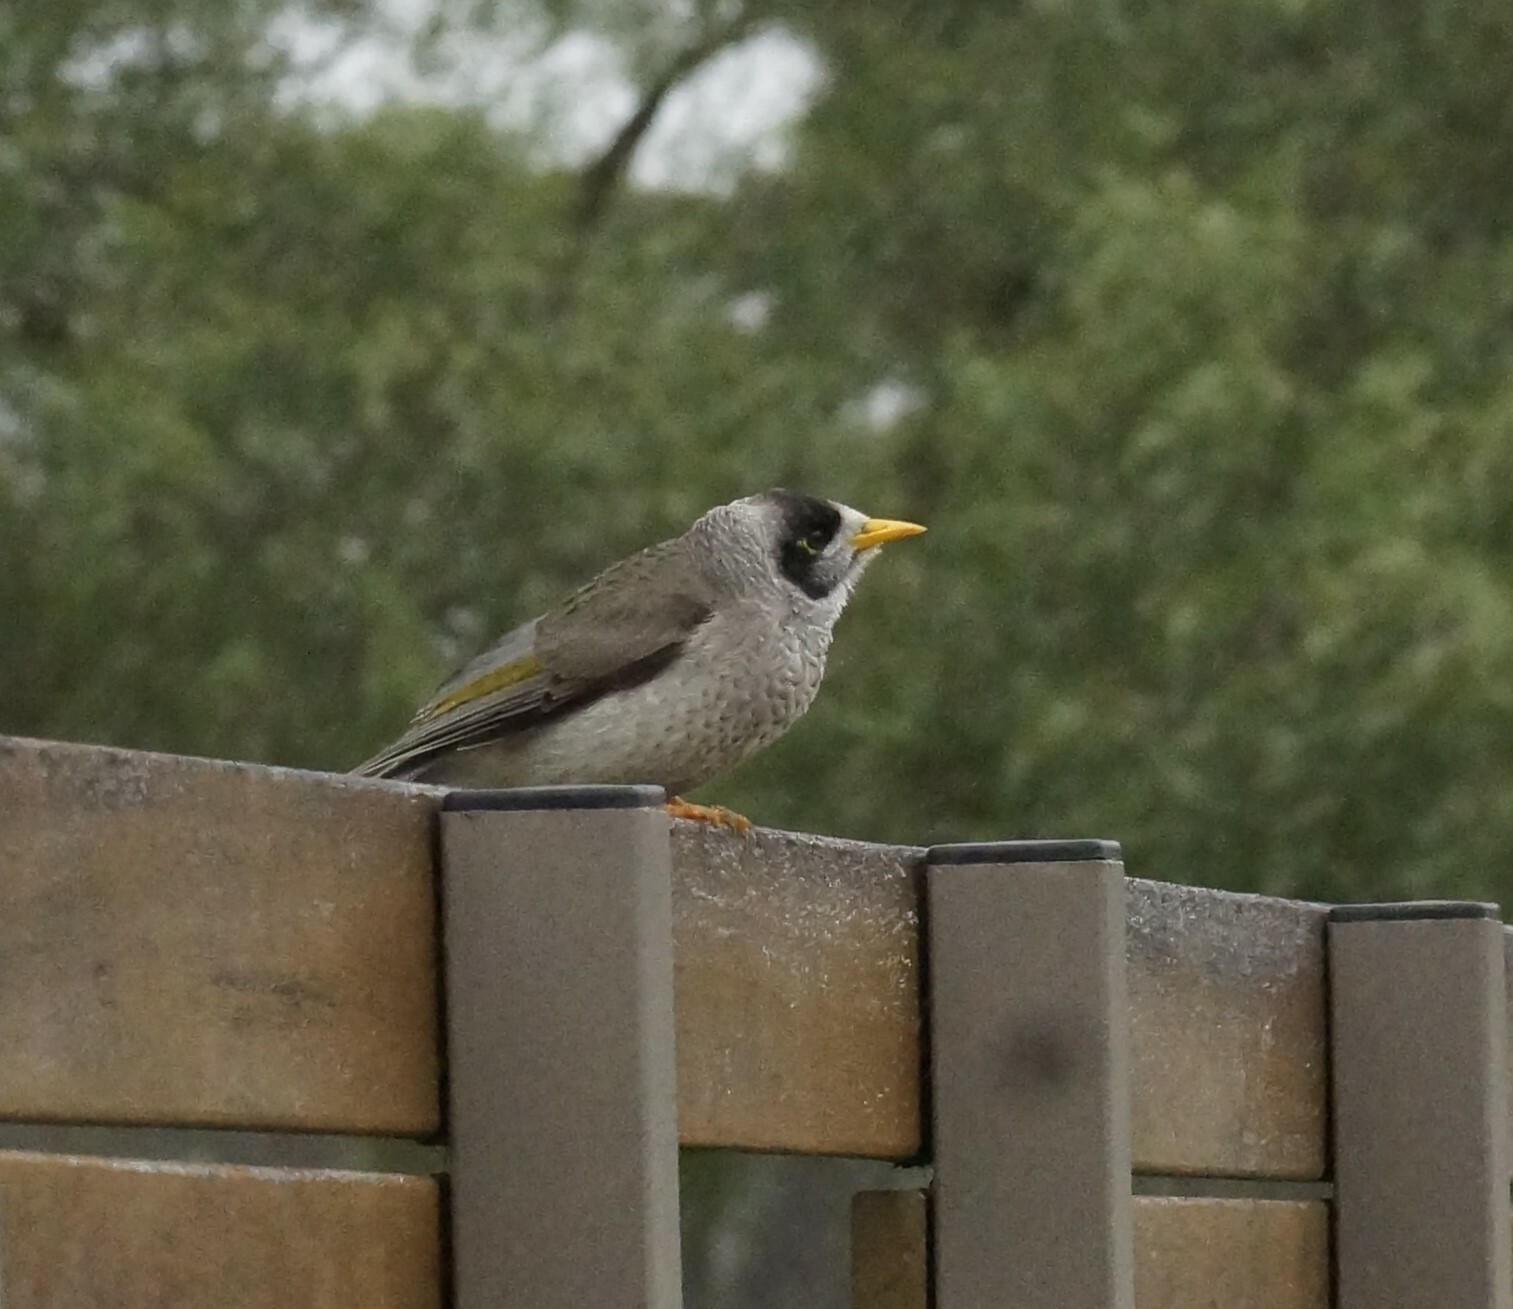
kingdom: Animalia
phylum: Chordata
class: Aves
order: Passeriformes
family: Meliphagidae
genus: Manorina
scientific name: Manorina melanocephala
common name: Noisy miner
